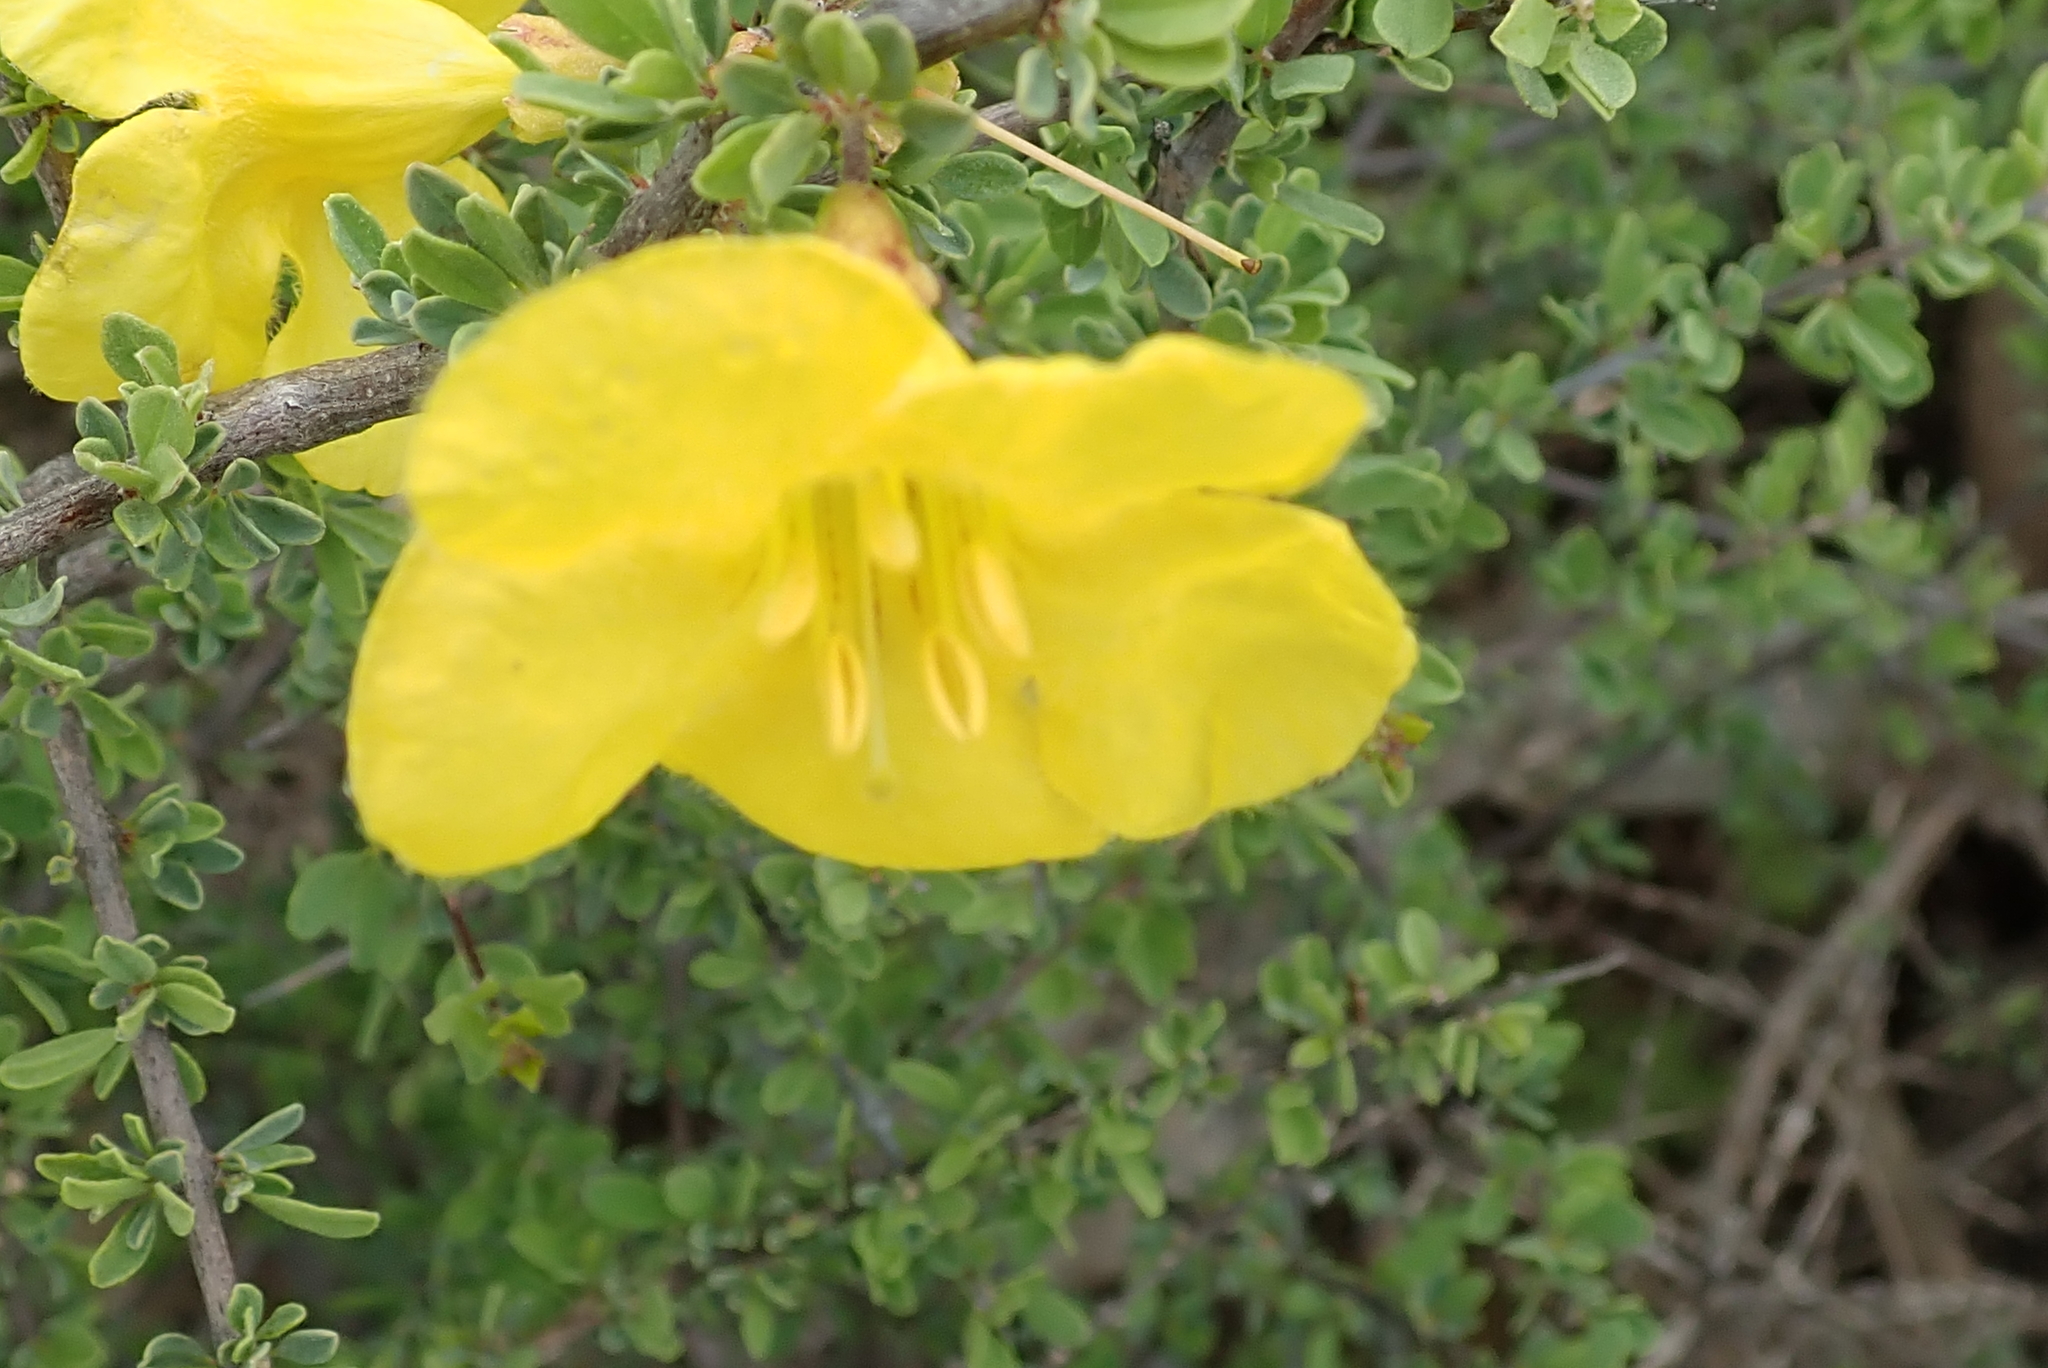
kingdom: Plantae
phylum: Tracheophyta
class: Magnoliopsida
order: Lamiales
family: Bignoniaceae
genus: Rhigozum
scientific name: Rhigozum obovatum
